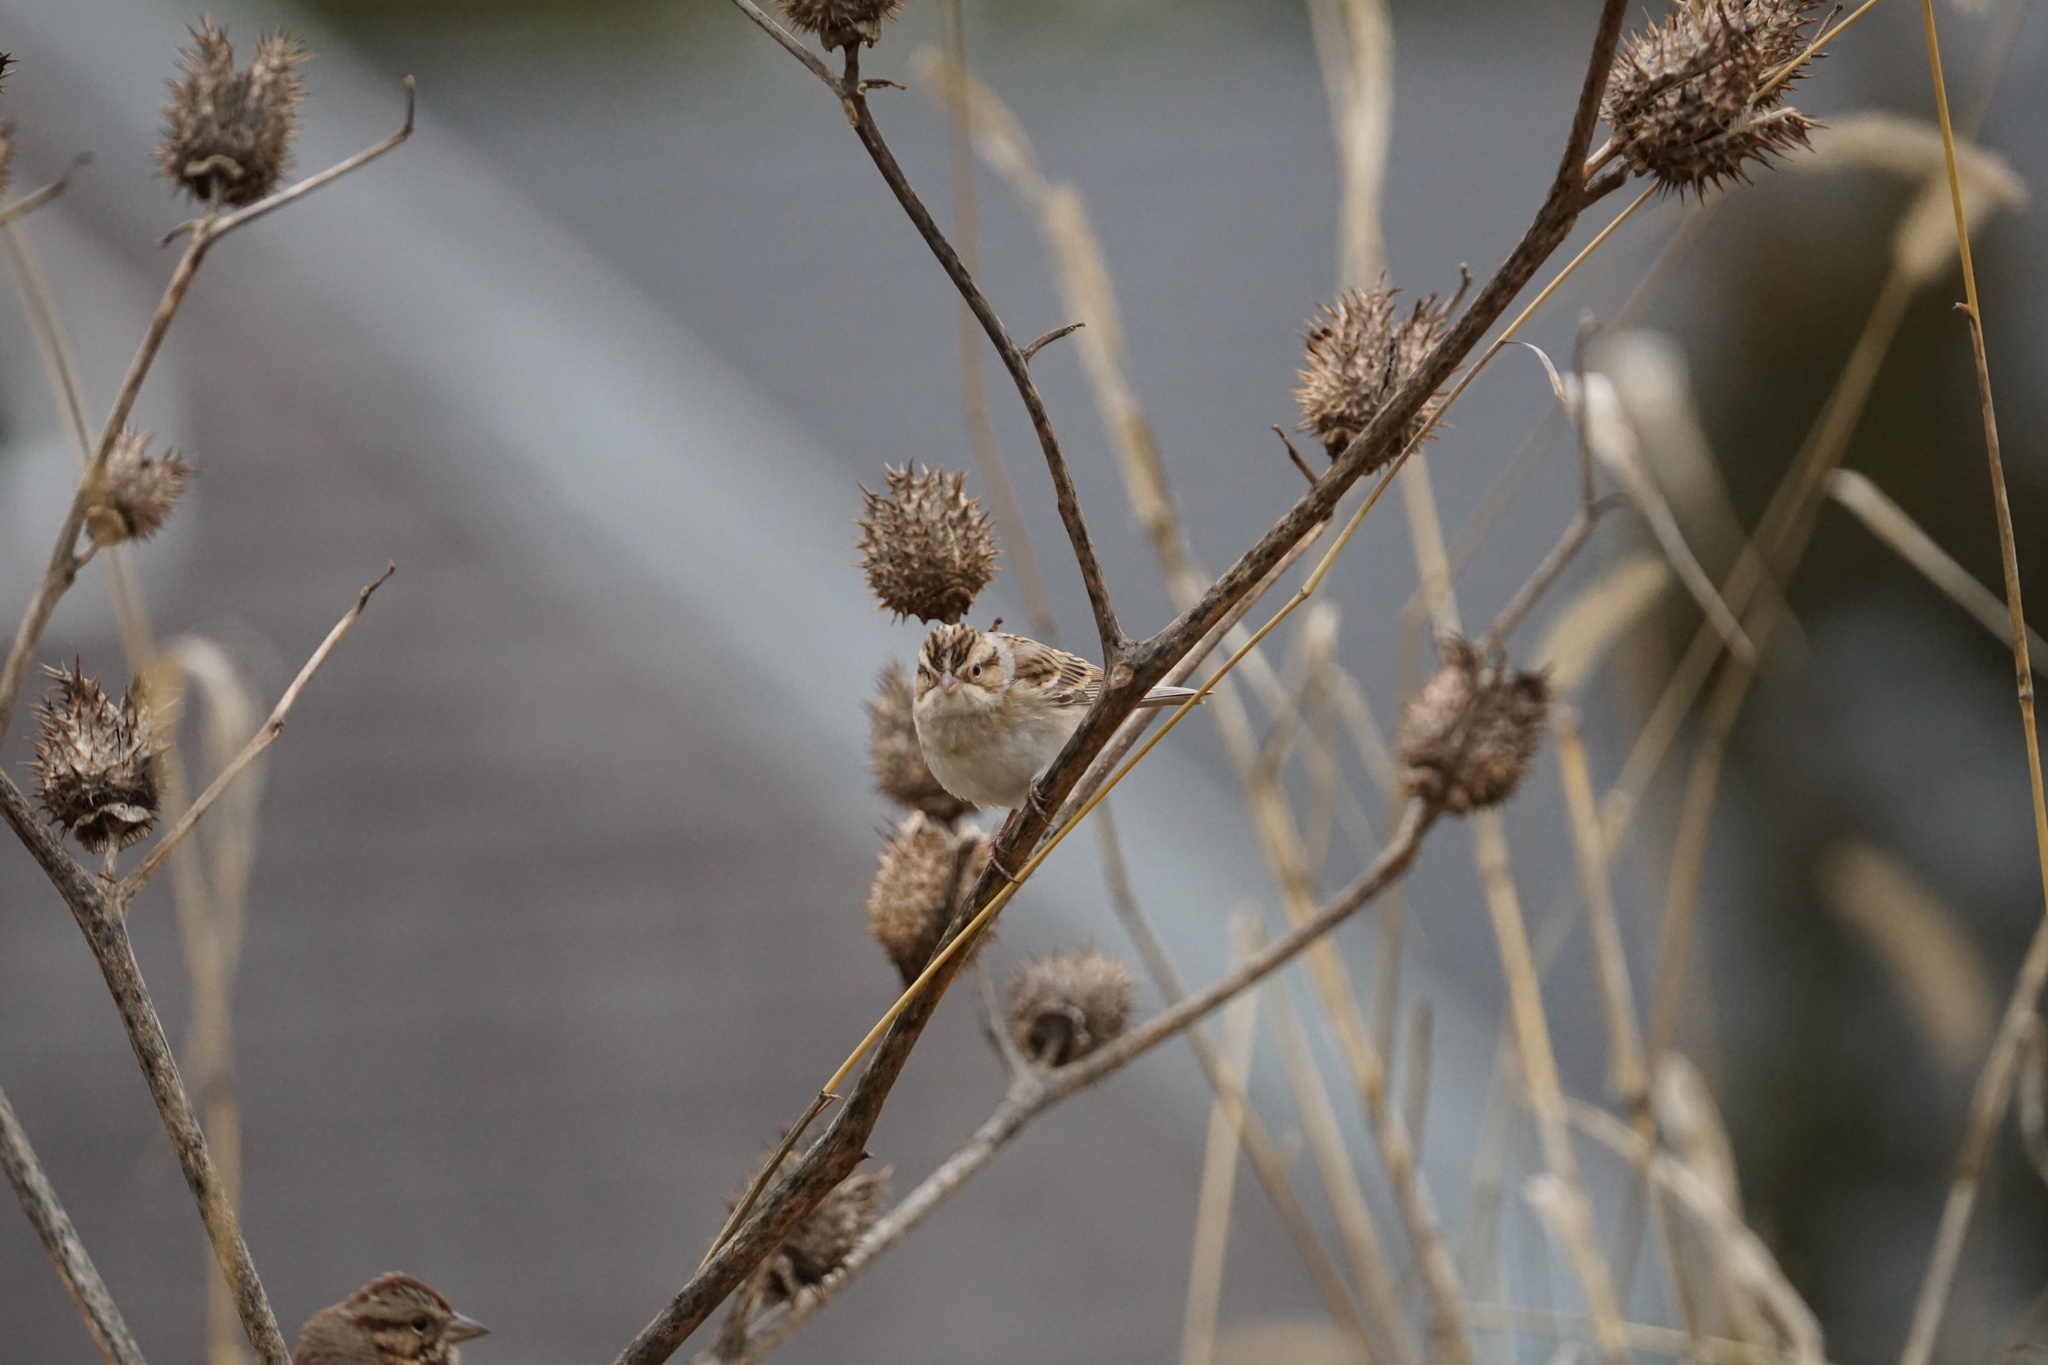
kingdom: Animalia
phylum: Chordata
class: Aves
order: Passeriformes
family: Passerellidae
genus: Spizella
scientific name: Spizella pallida
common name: Clay-colored sparrow
